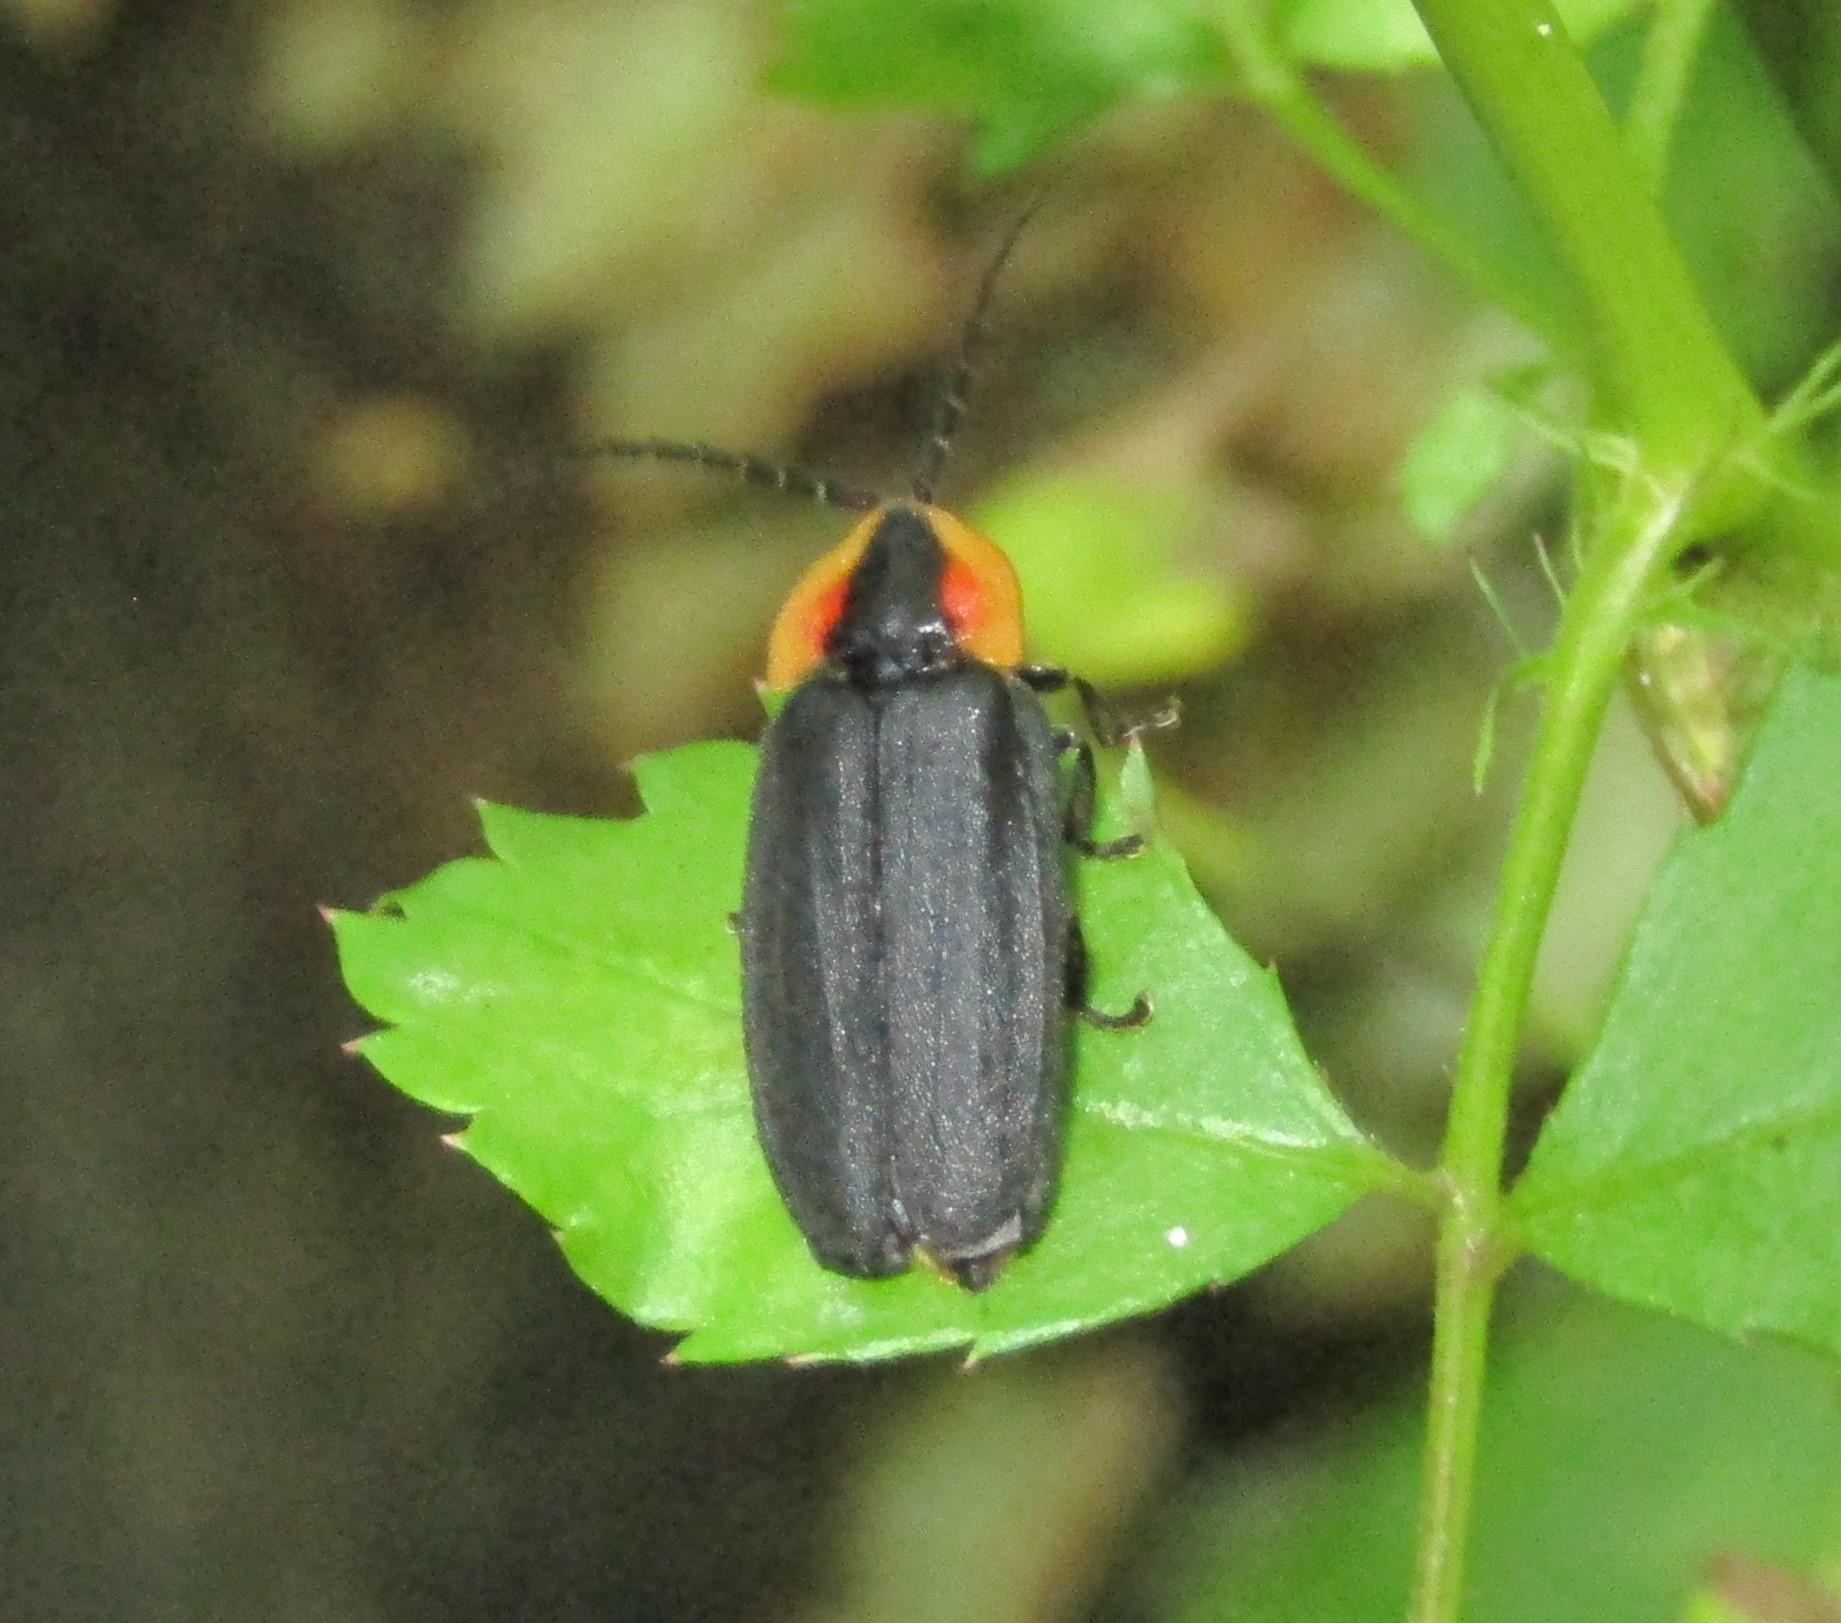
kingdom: Animalia
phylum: Arthropoda
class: Insecta
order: Coleoptera
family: Lampyridae
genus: Lucidota
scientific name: Lucidota atra
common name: Black firefly
